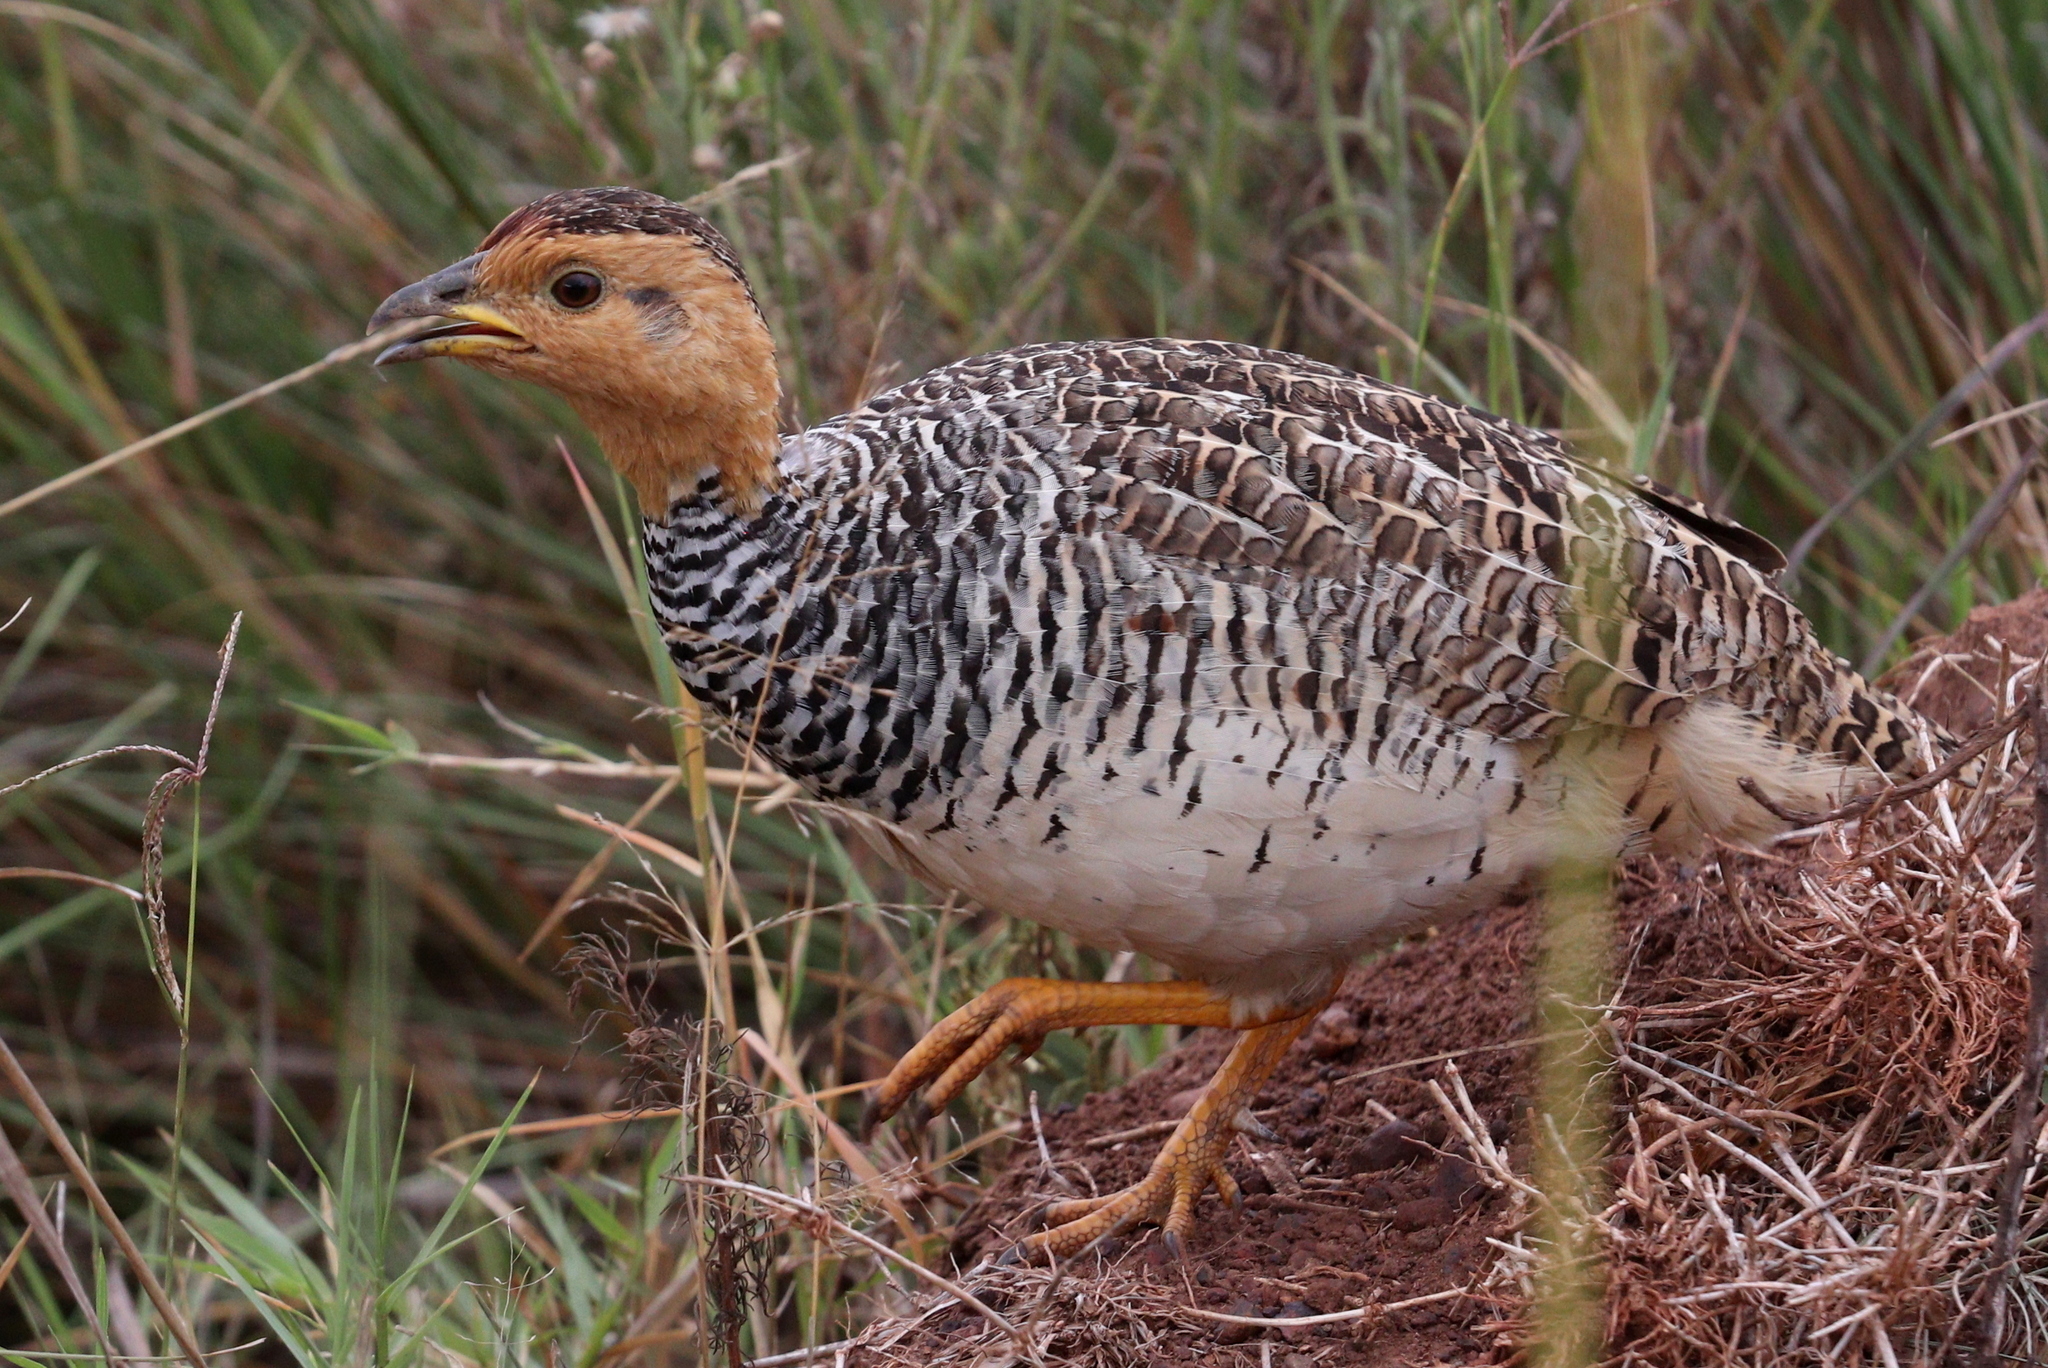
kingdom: Animalia
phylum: Chordata
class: Aves
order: Galliformes
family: Phasianidae
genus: Campocolinus
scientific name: Campocolinus coqui
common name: Coqui francolin
